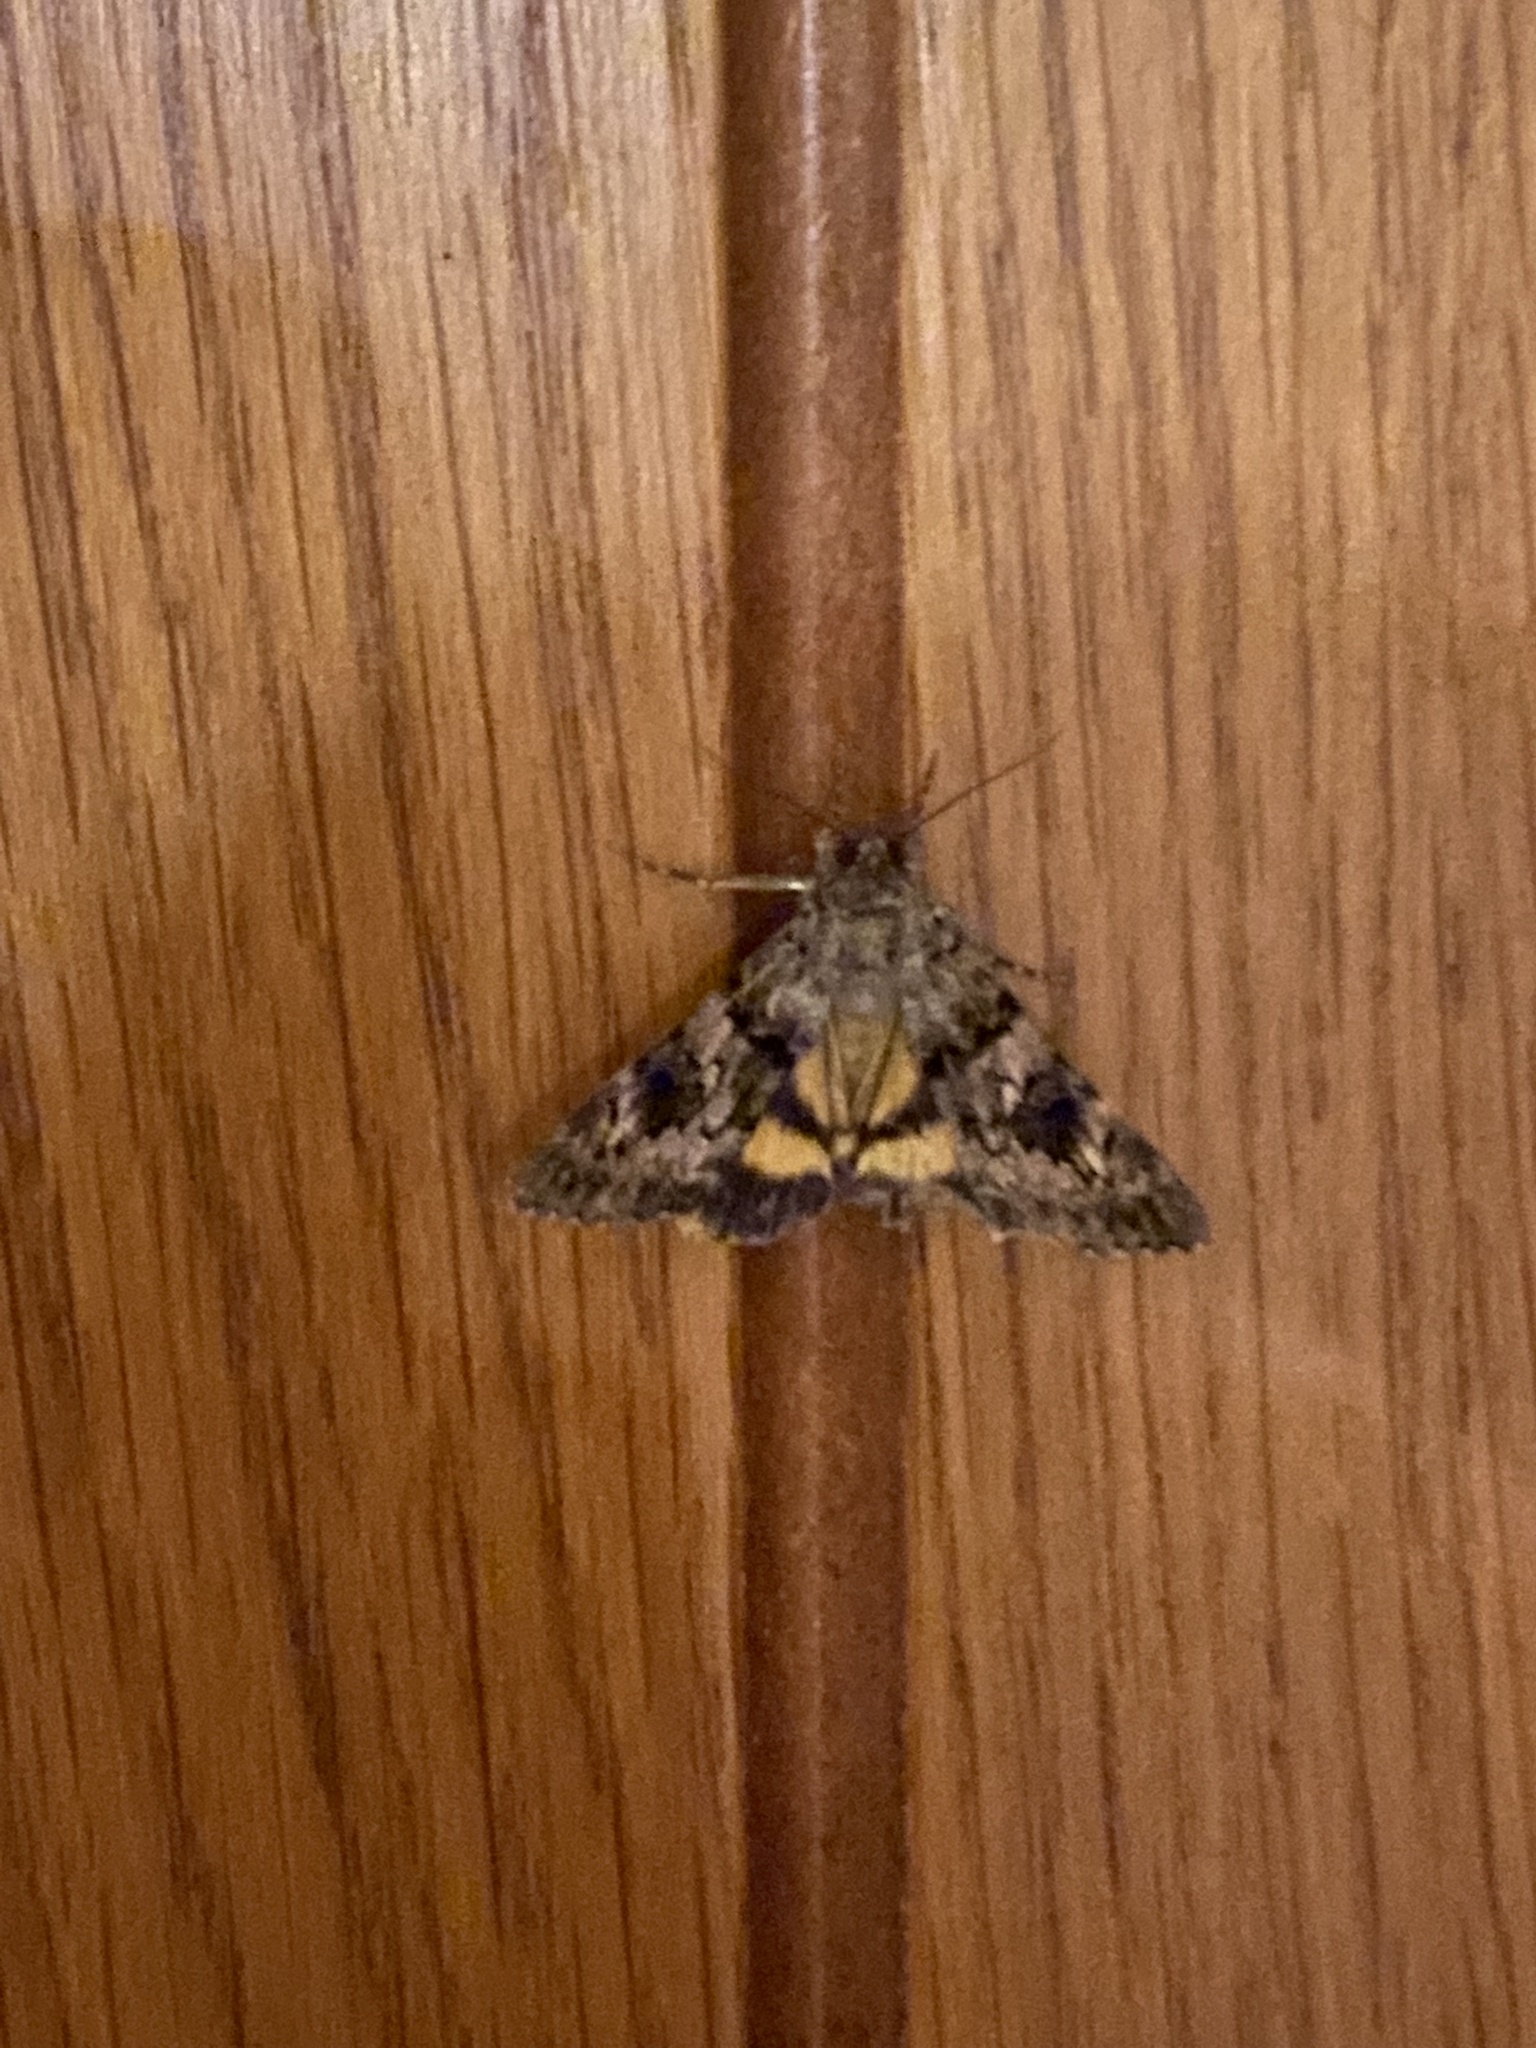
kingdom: Animalia
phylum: Arthropoda
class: Insecta
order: Lepidoptera
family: Erebidae
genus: Catocala
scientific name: Catocala nymphagoga
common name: Oak yellow underwing
